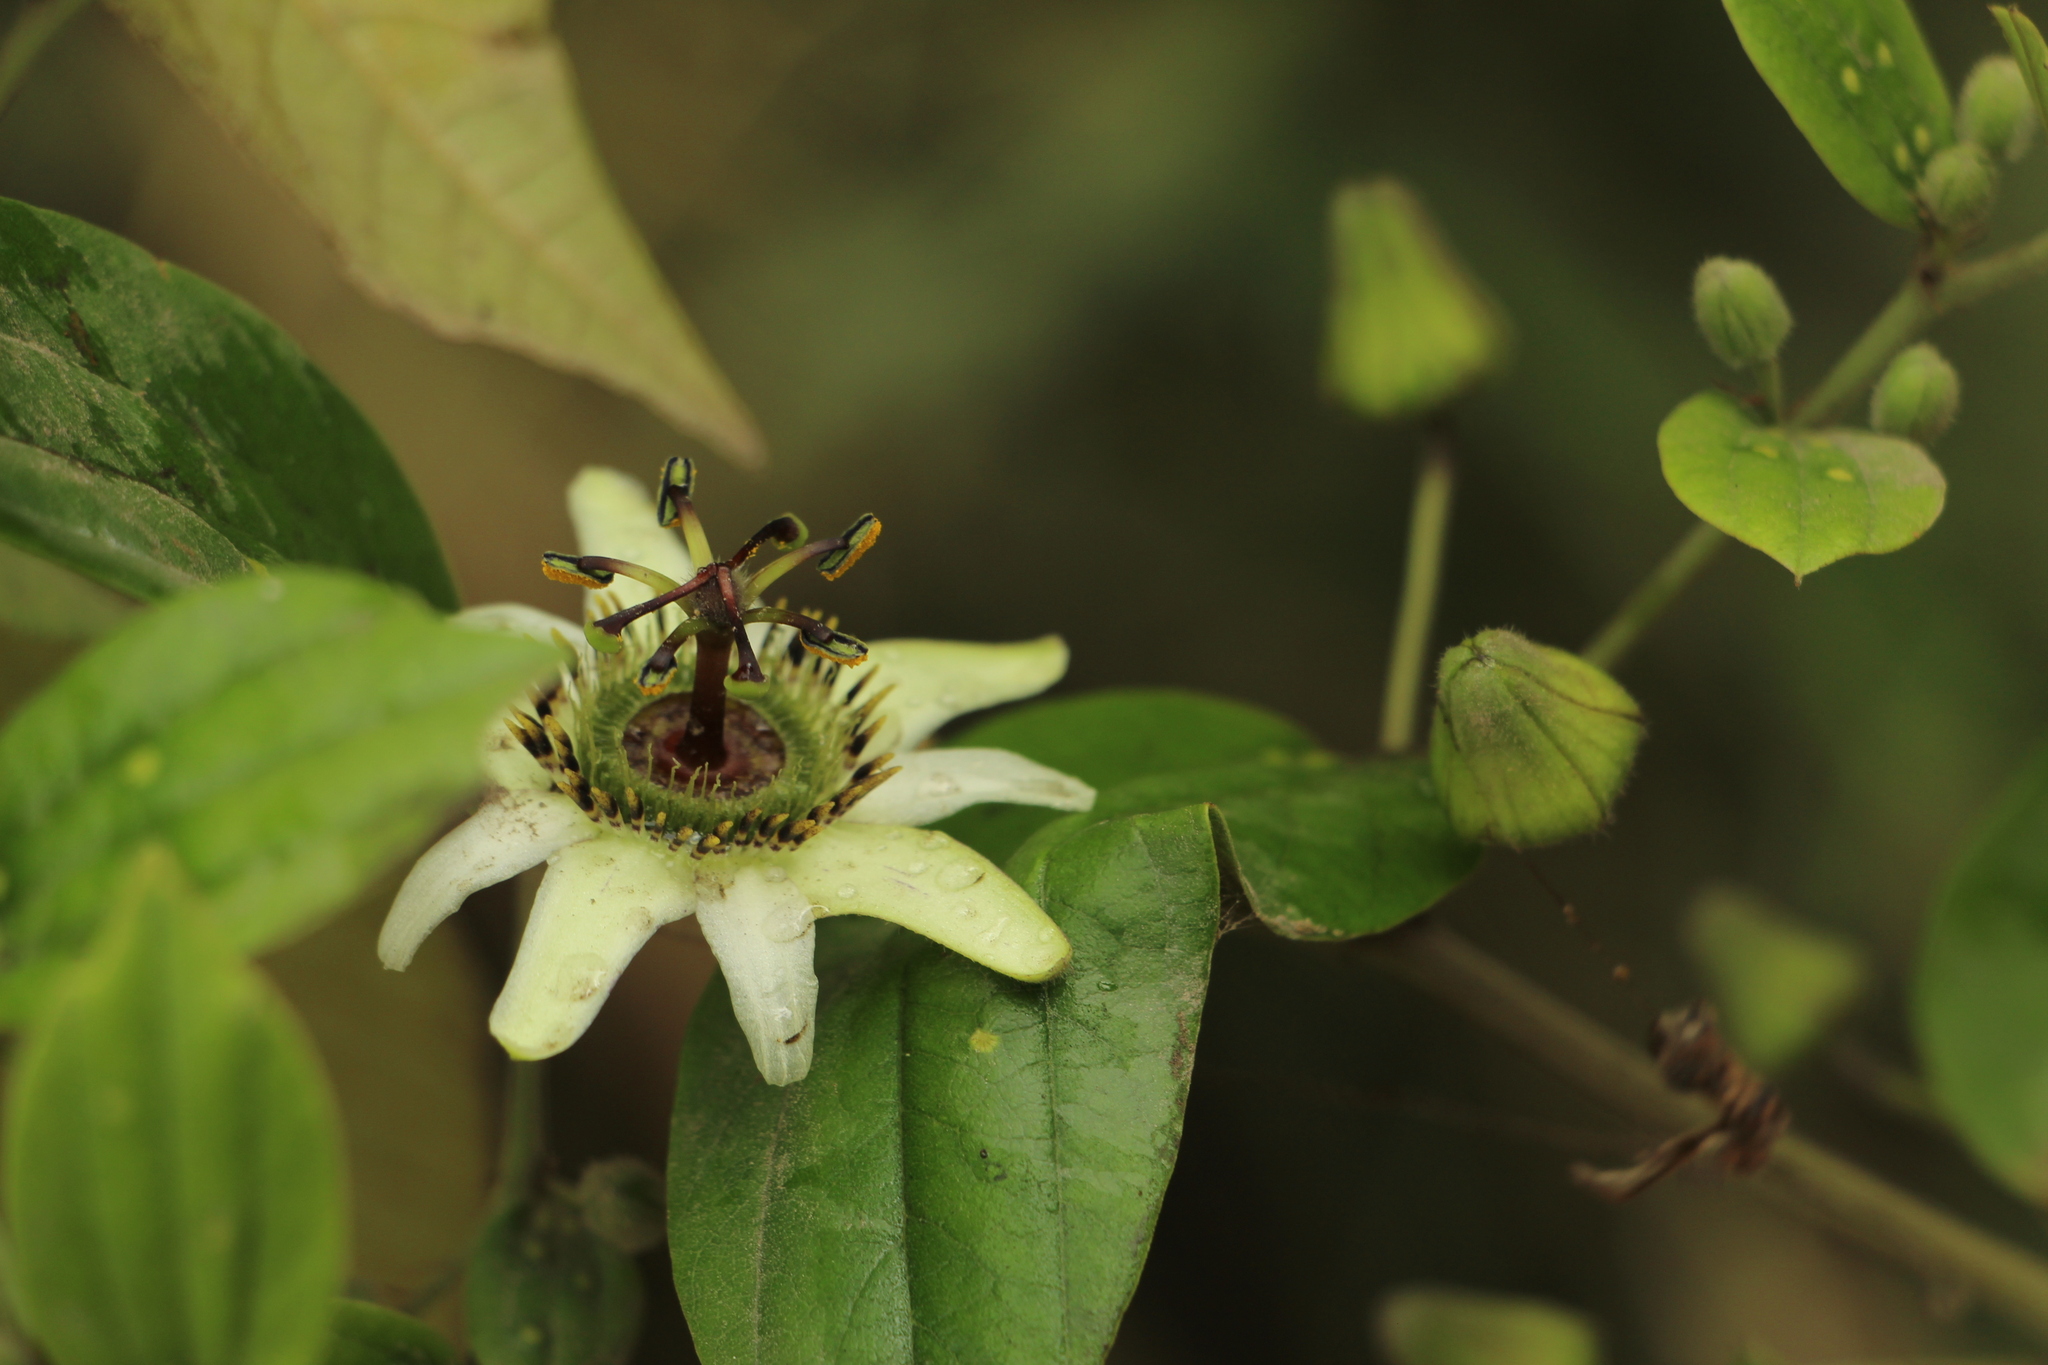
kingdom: Plantae
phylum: Tracheophyta
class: Magnoliopsida
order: Malpighiales
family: Passifloraceae
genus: Passiflora
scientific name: Passiflora cuspidifolia
